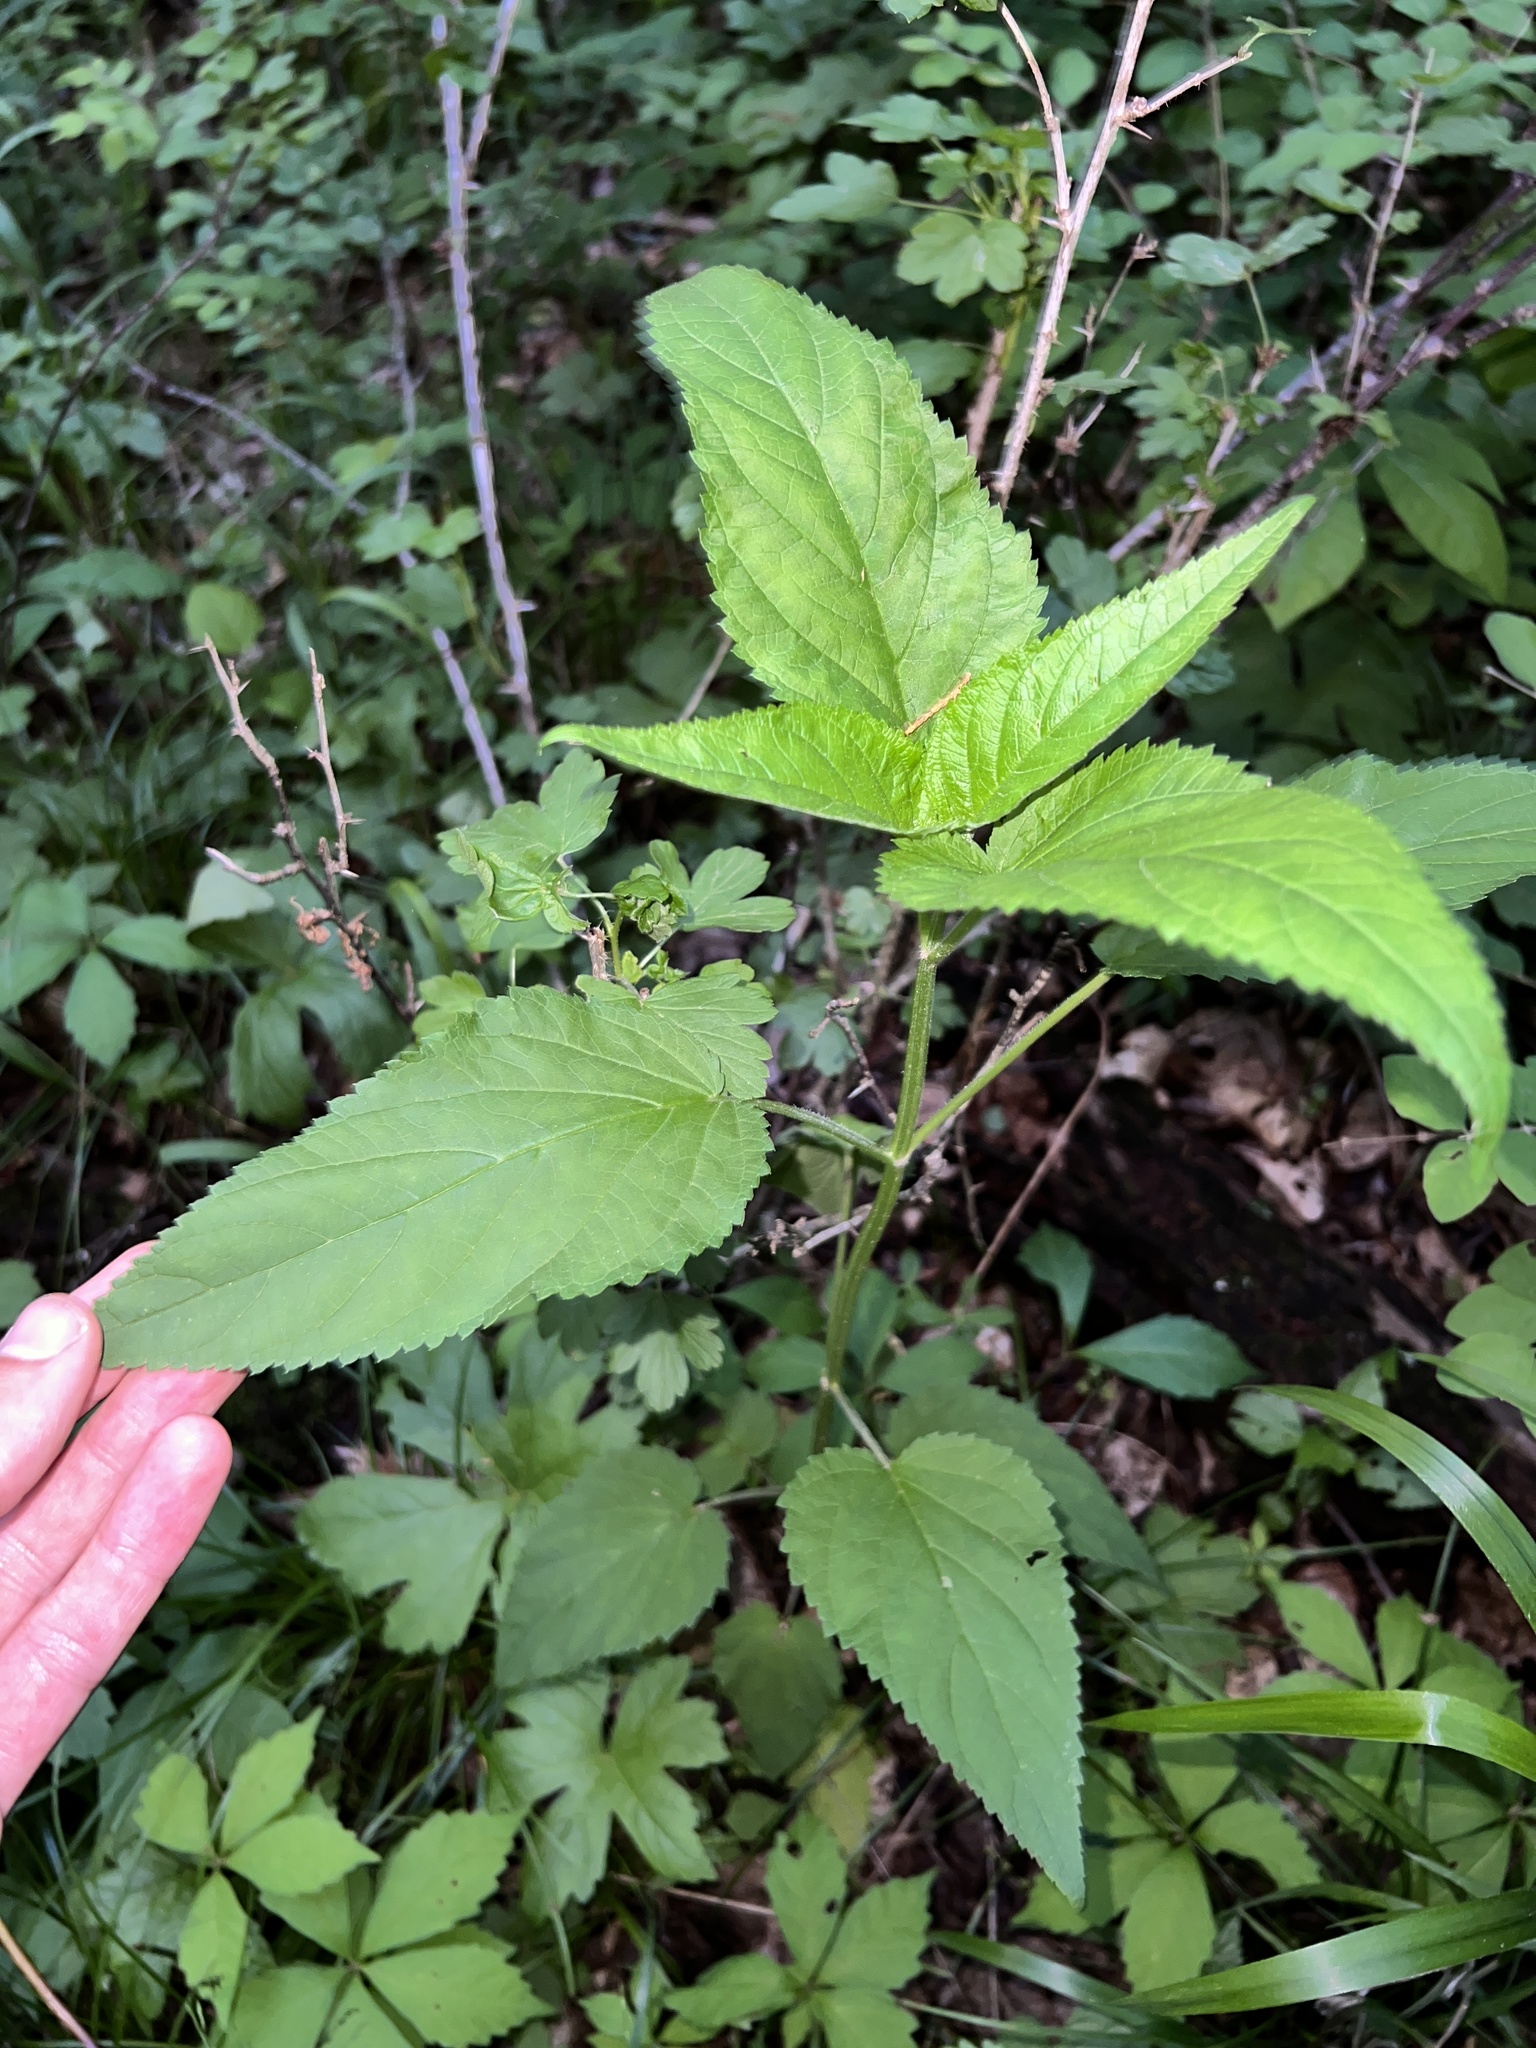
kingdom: Plantae
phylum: Tracheophyta
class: Magnoliopsida
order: Lamiales
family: Scrophulariaceae
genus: Scrophularia
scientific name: Scrophularia marilandica
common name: Eastern figwort
